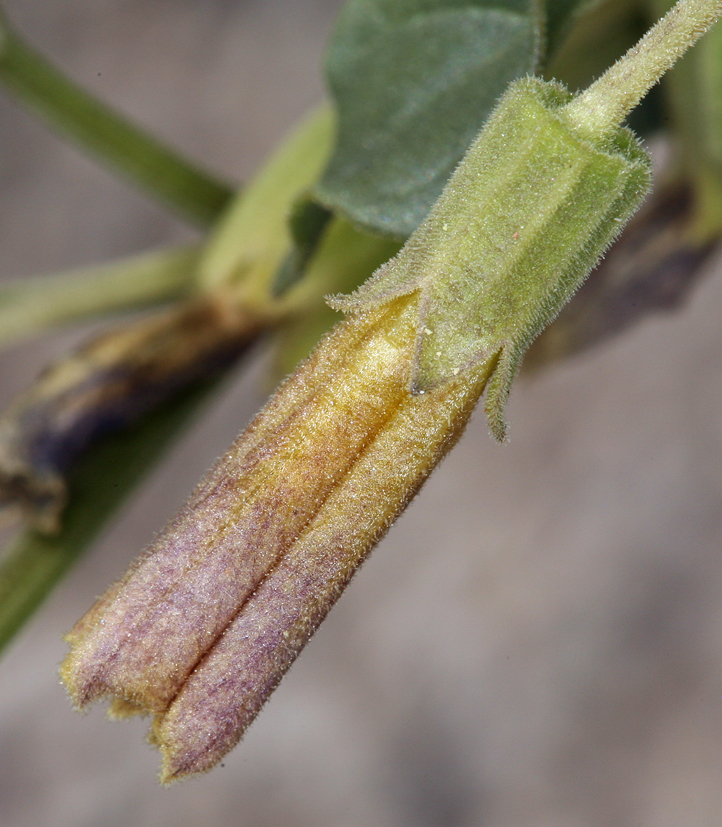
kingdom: Plantae
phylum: Tracheophyta
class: Magnoliopsida
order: Solanales
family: Solanaceae
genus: Physalis
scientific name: Physalis crassifolia
